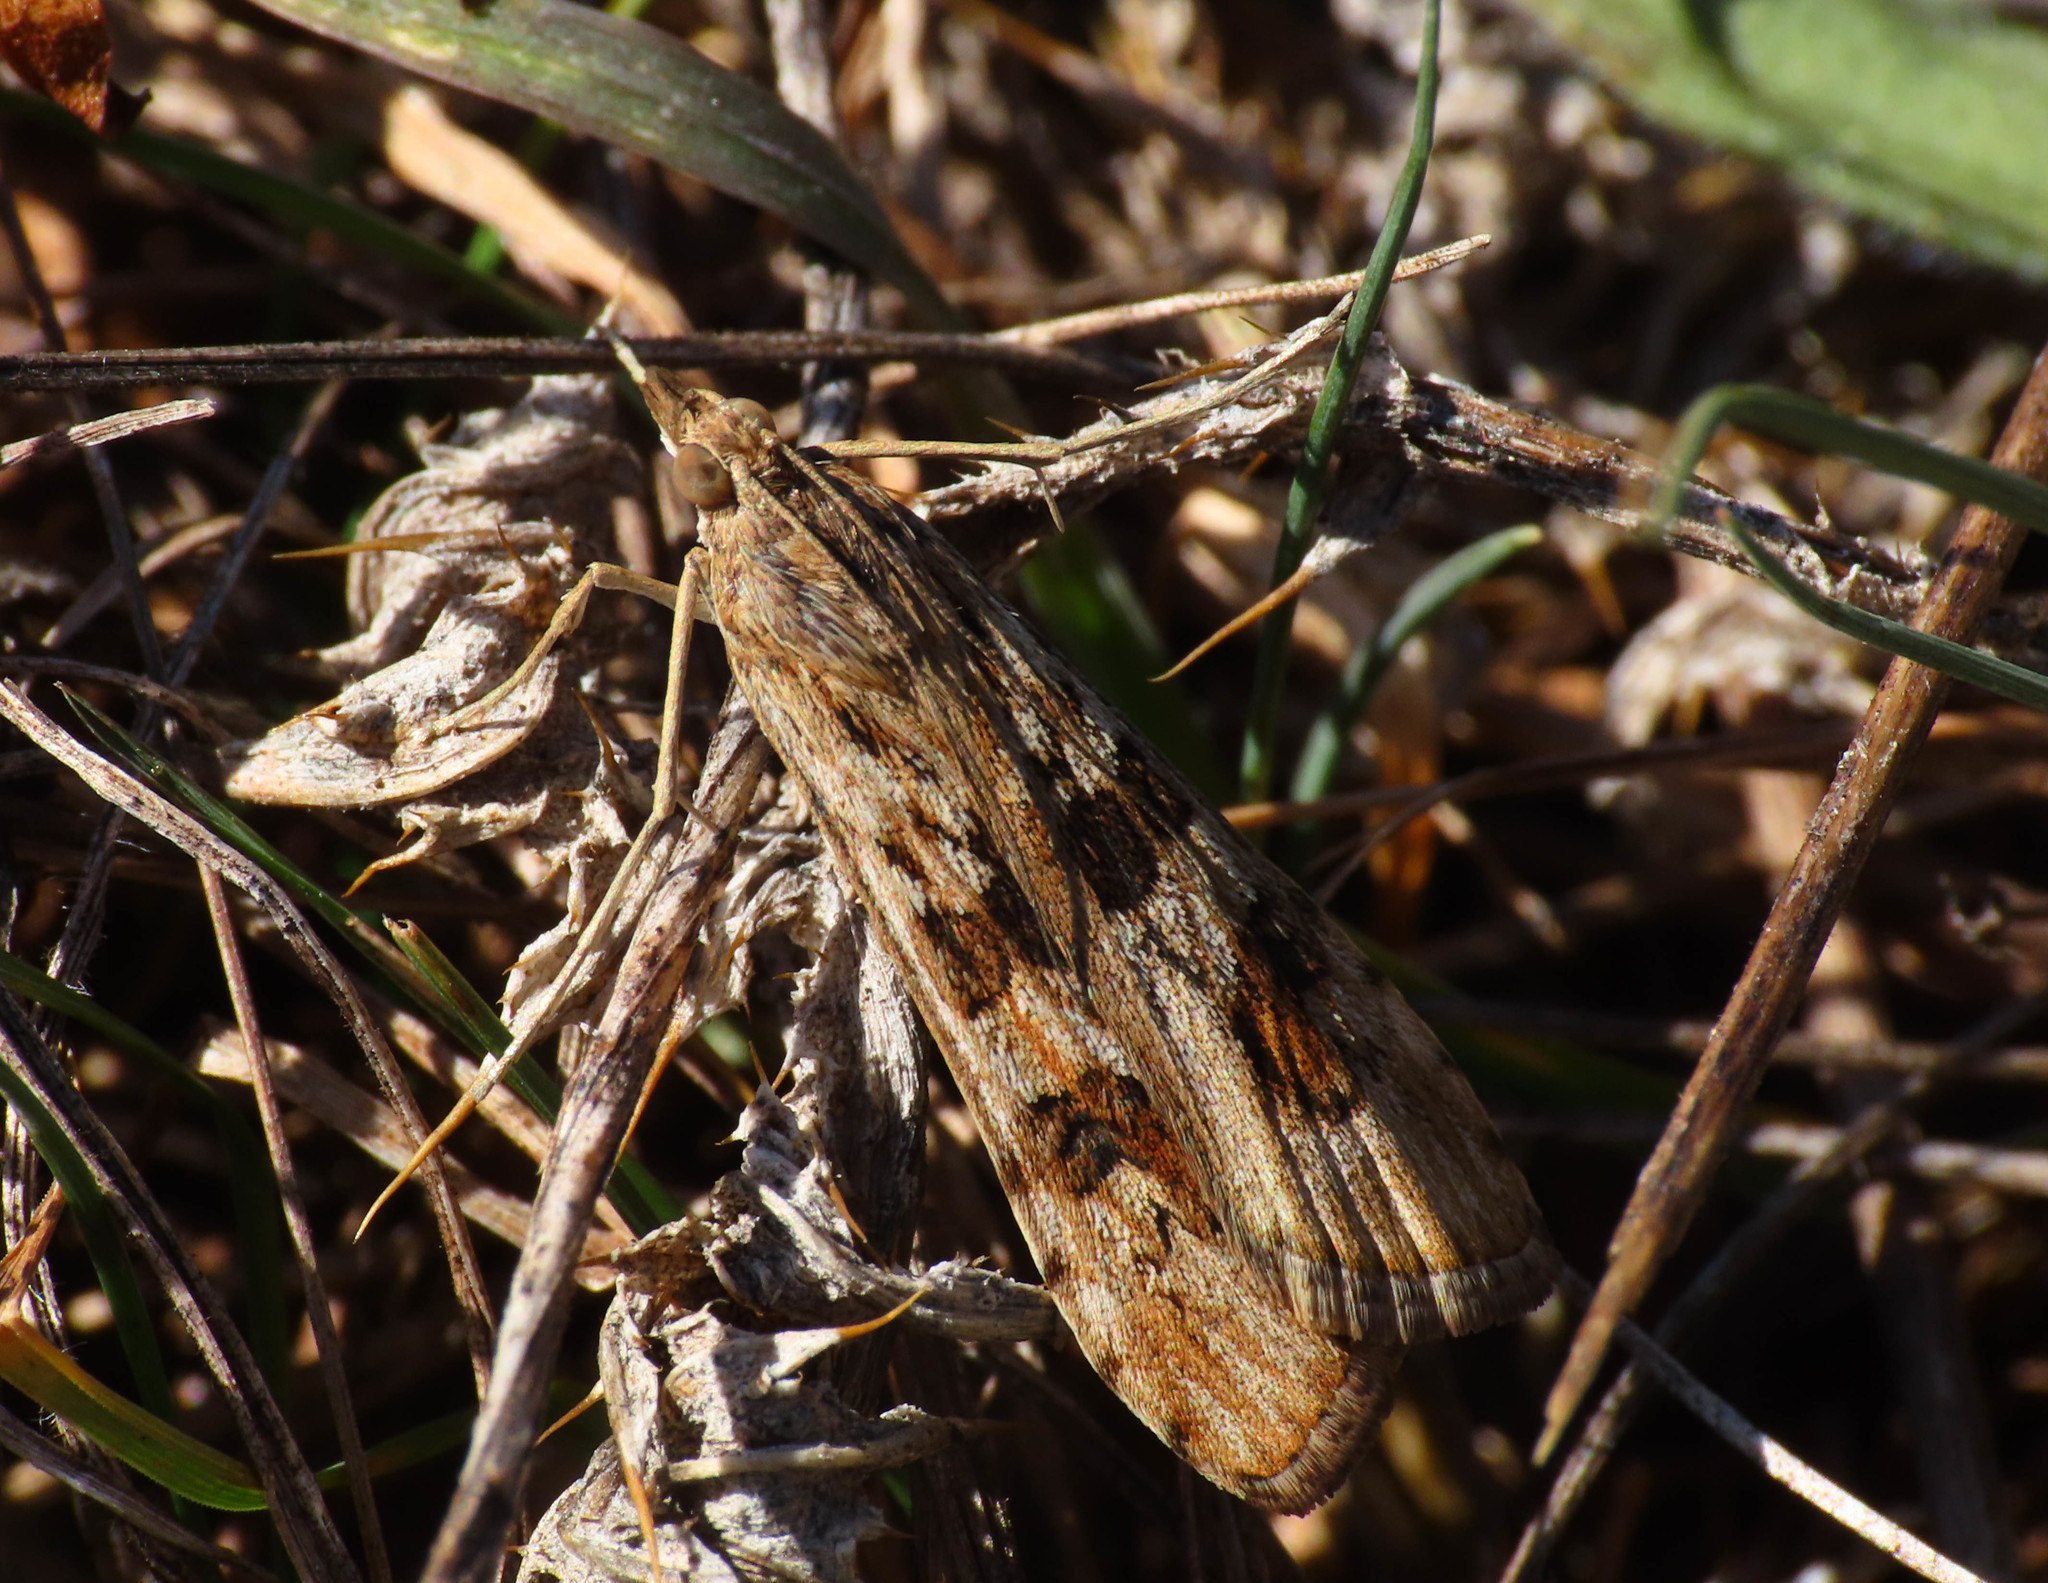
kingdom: Animalia
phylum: Arthropoda
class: Insecta
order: Lepidoptera
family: Crambidae
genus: Nomophila
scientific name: Nomophila noctuella
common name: Rush veneer
